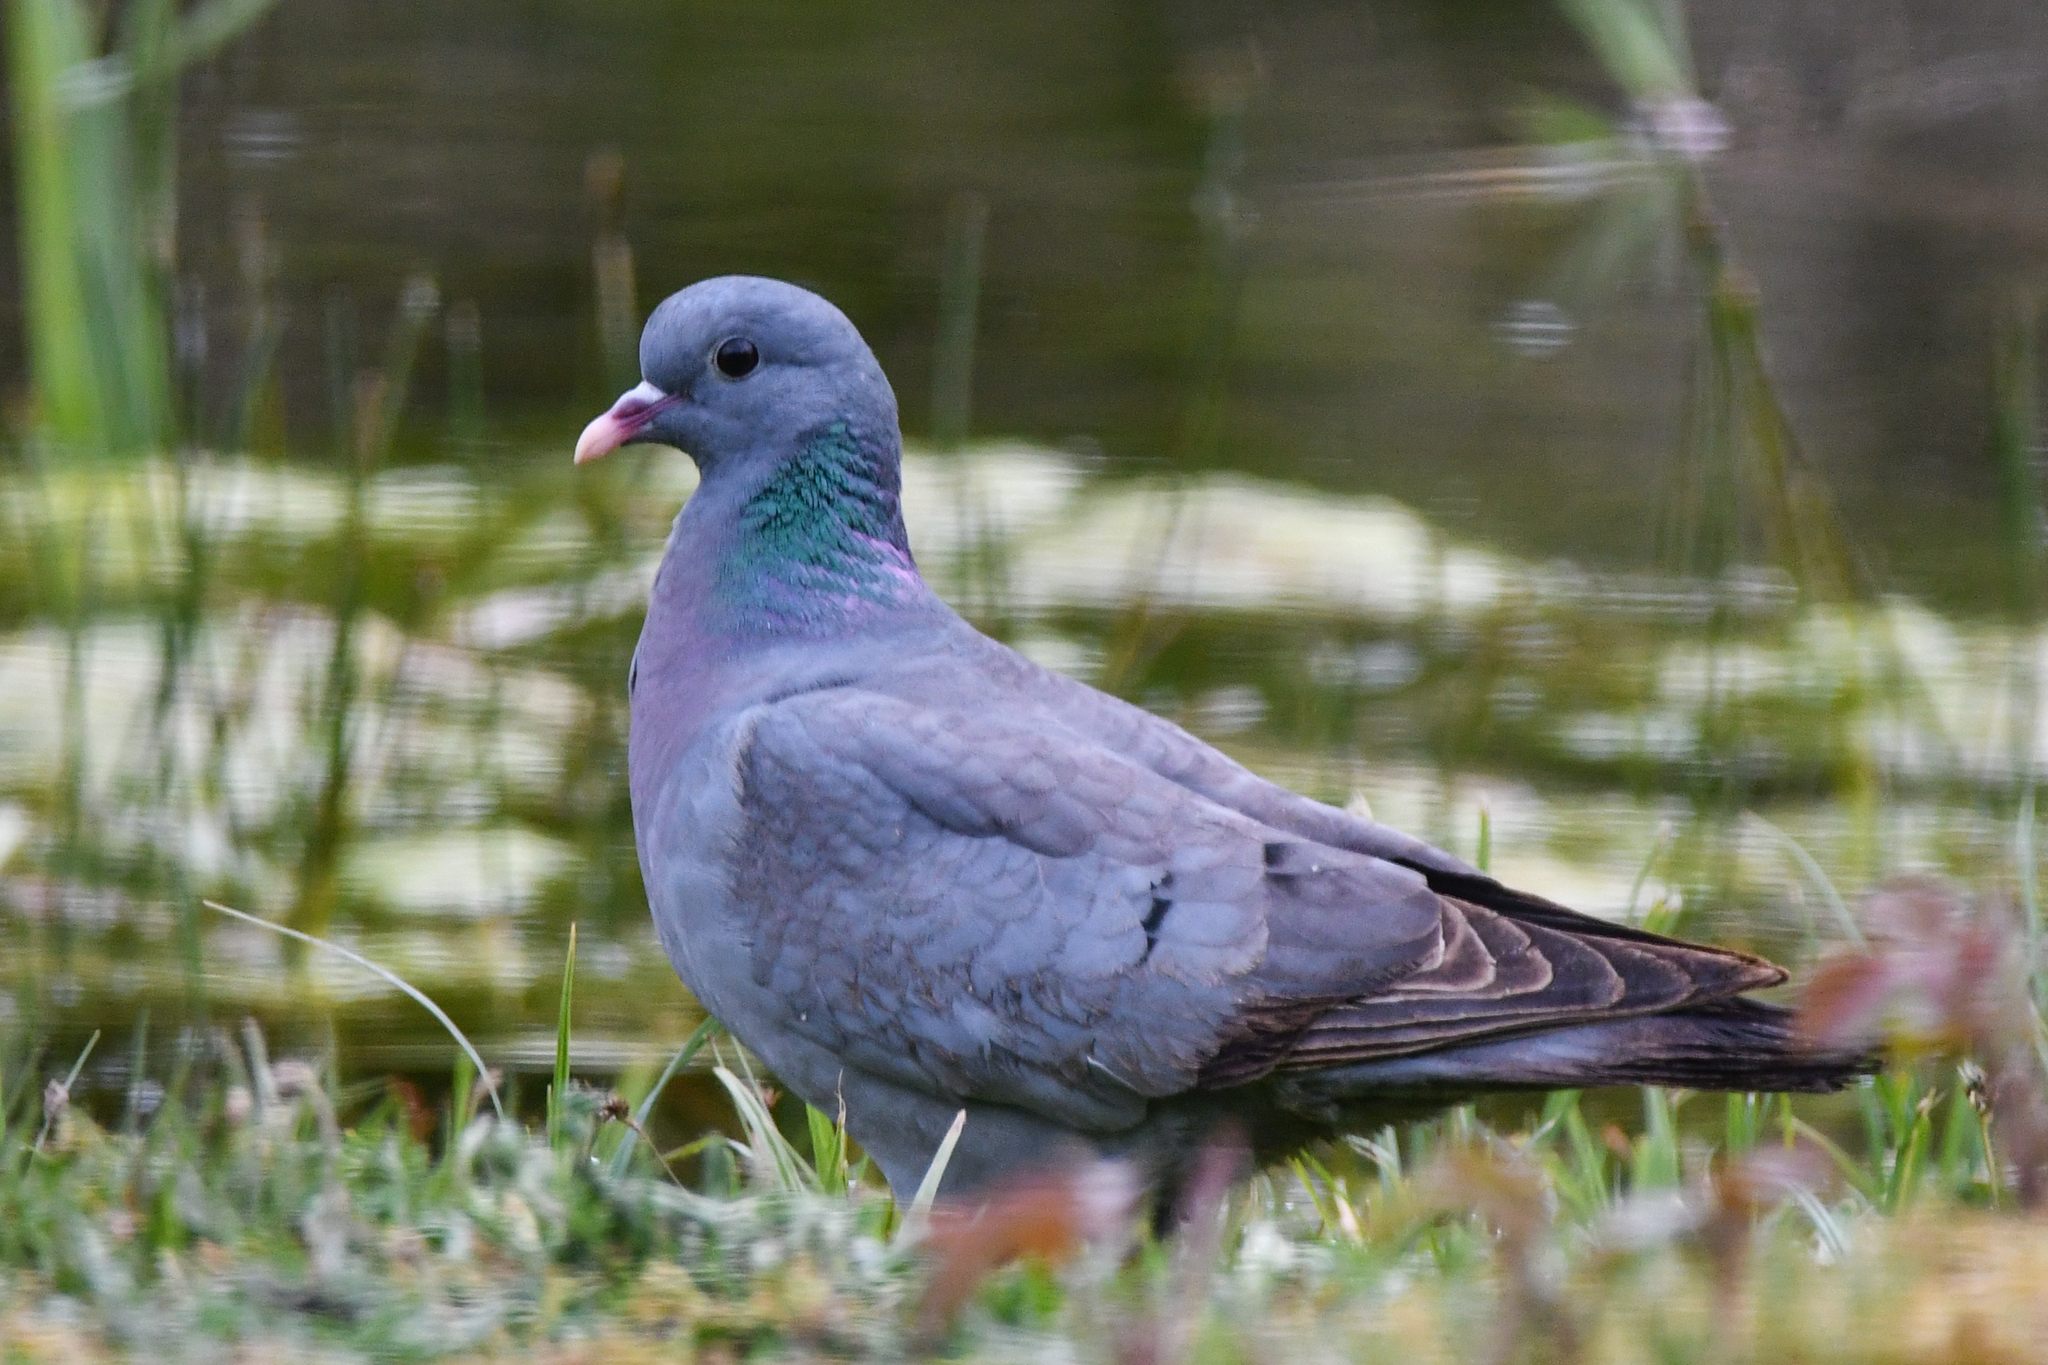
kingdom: Animalia
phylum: Chordata
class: Aves
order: Columbiformes
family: Columbidae
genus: Columba
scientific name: Columba oenas
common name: Stock dove
